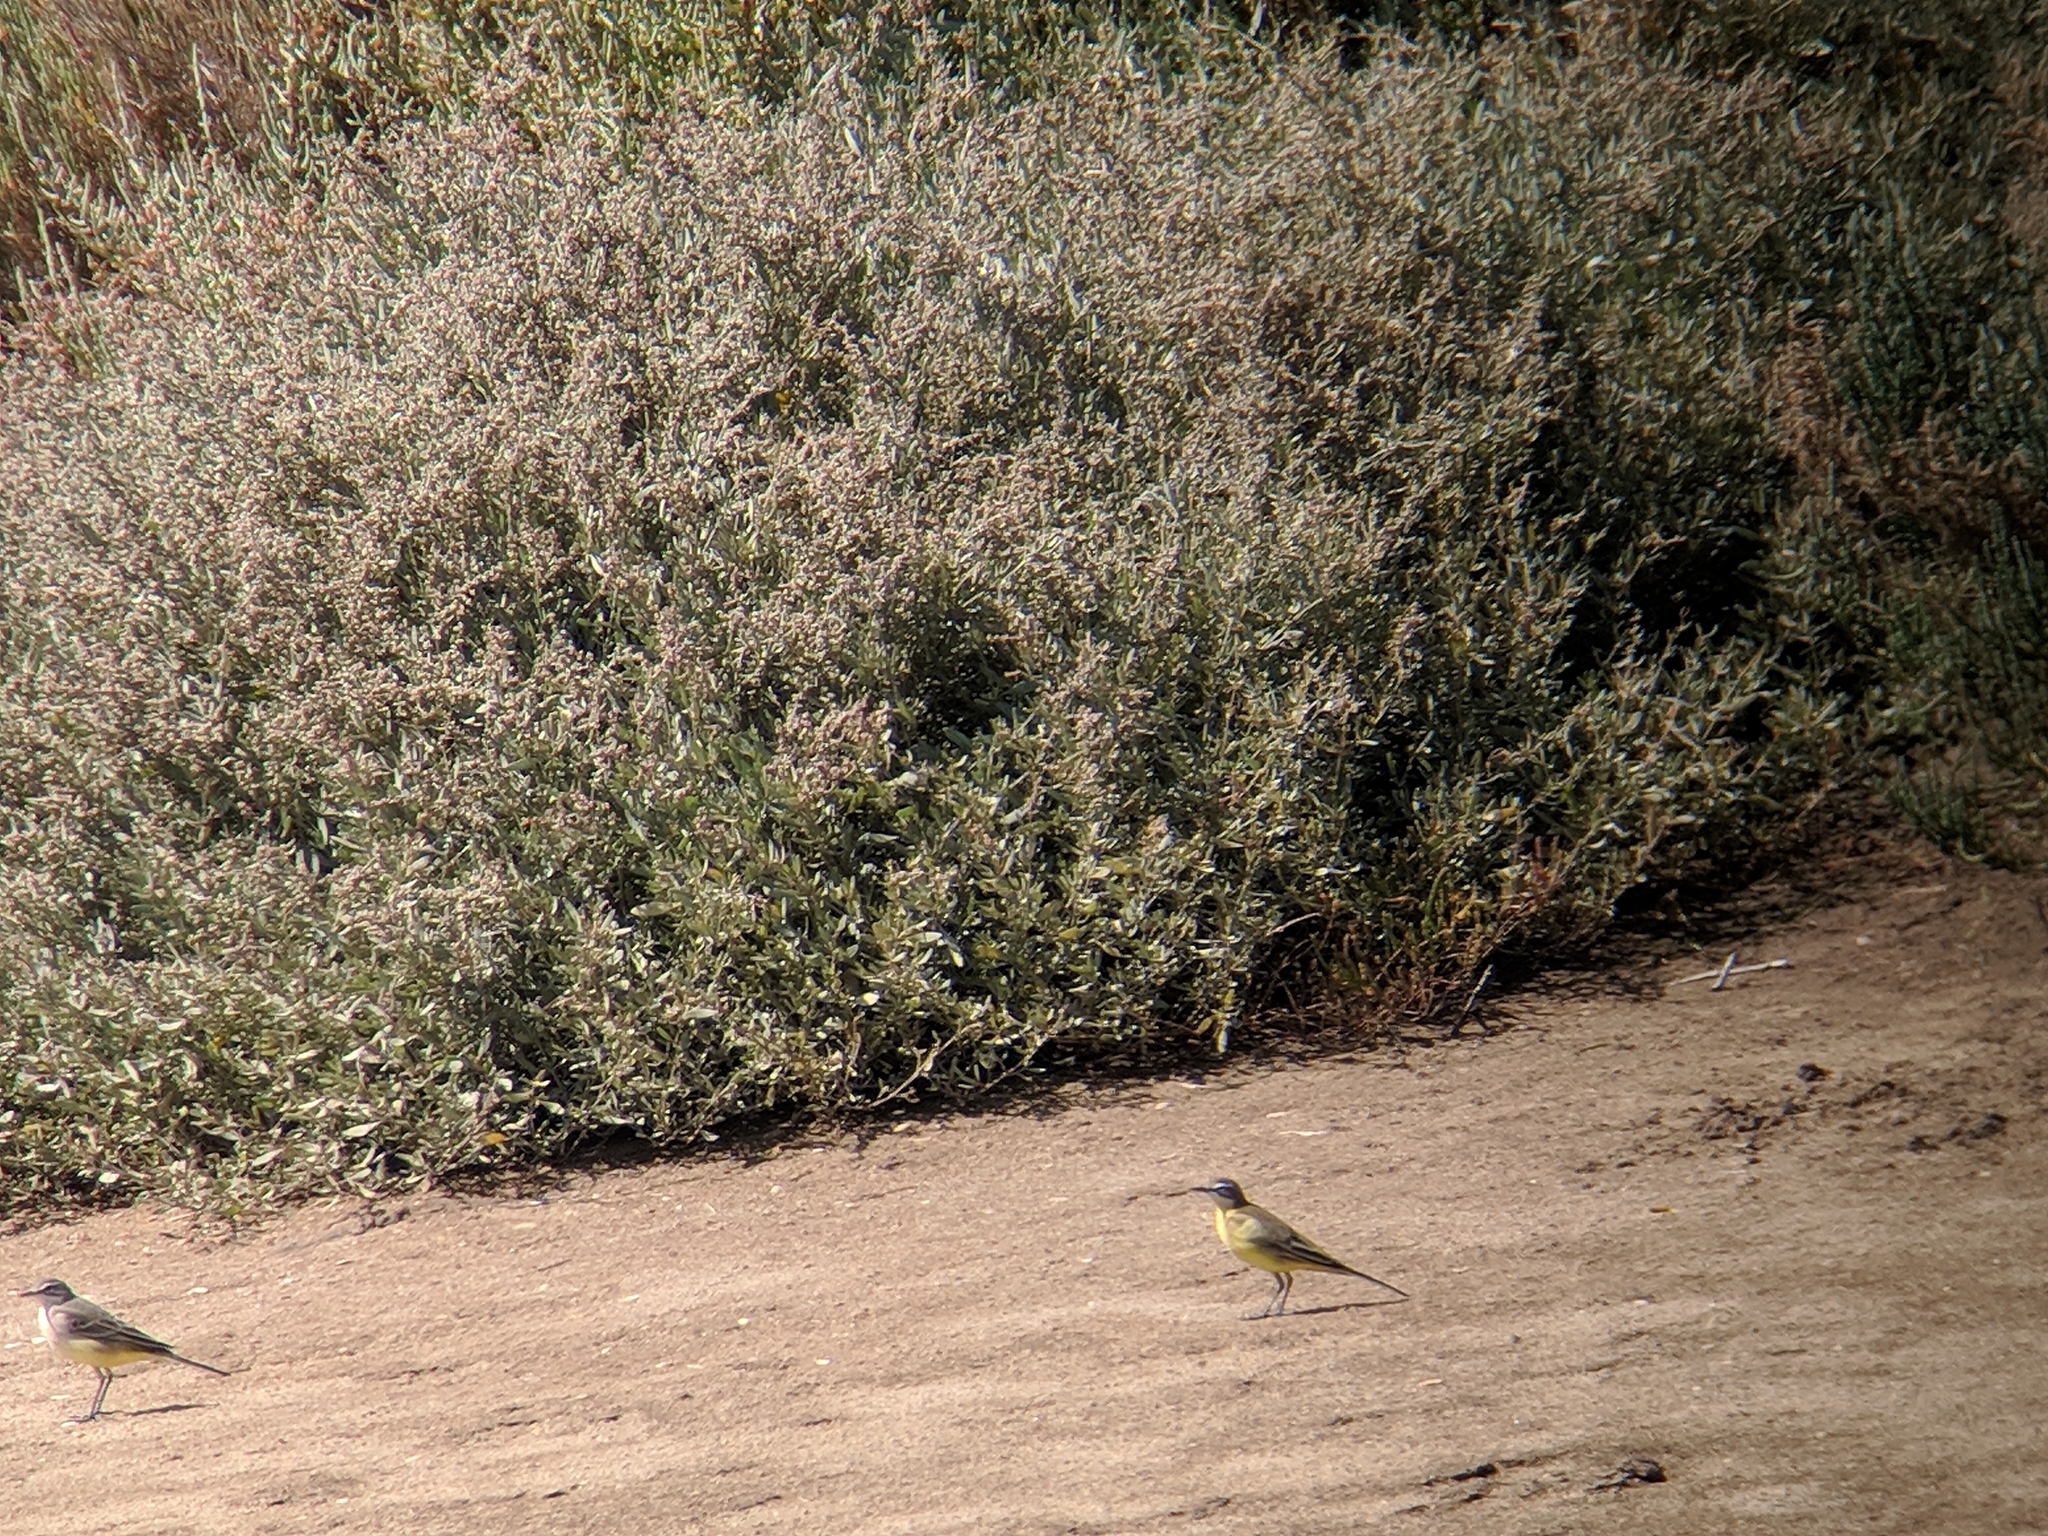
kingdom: Animalia
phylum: Chordata
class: Aves
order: Passeriformes
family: Motacillidae
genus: Motacilla
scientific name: Motacilla flava
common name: Western yellow wagtail
